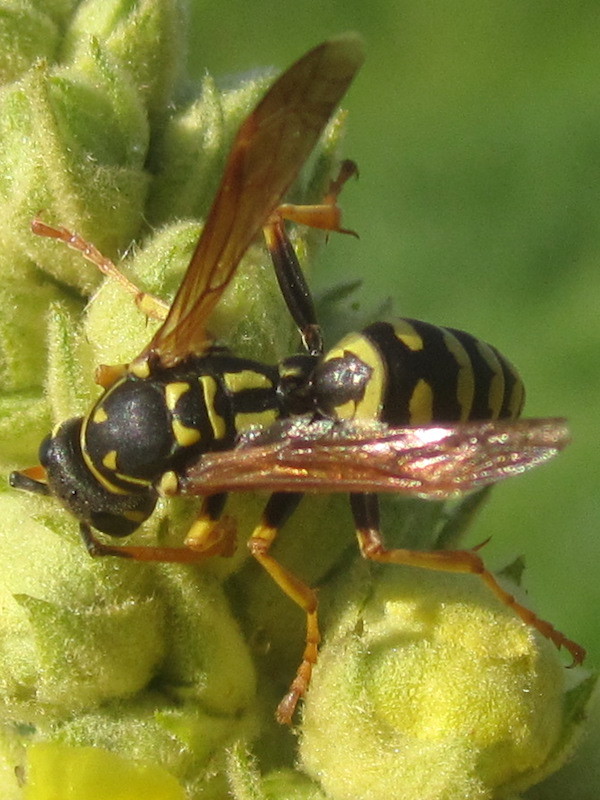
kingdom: Animalia
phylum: Arthropoda
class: Insecta
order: Hymenoptera
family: Eumenidae
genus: Polistes
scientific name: Polistes dominula
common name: Paper wasp
